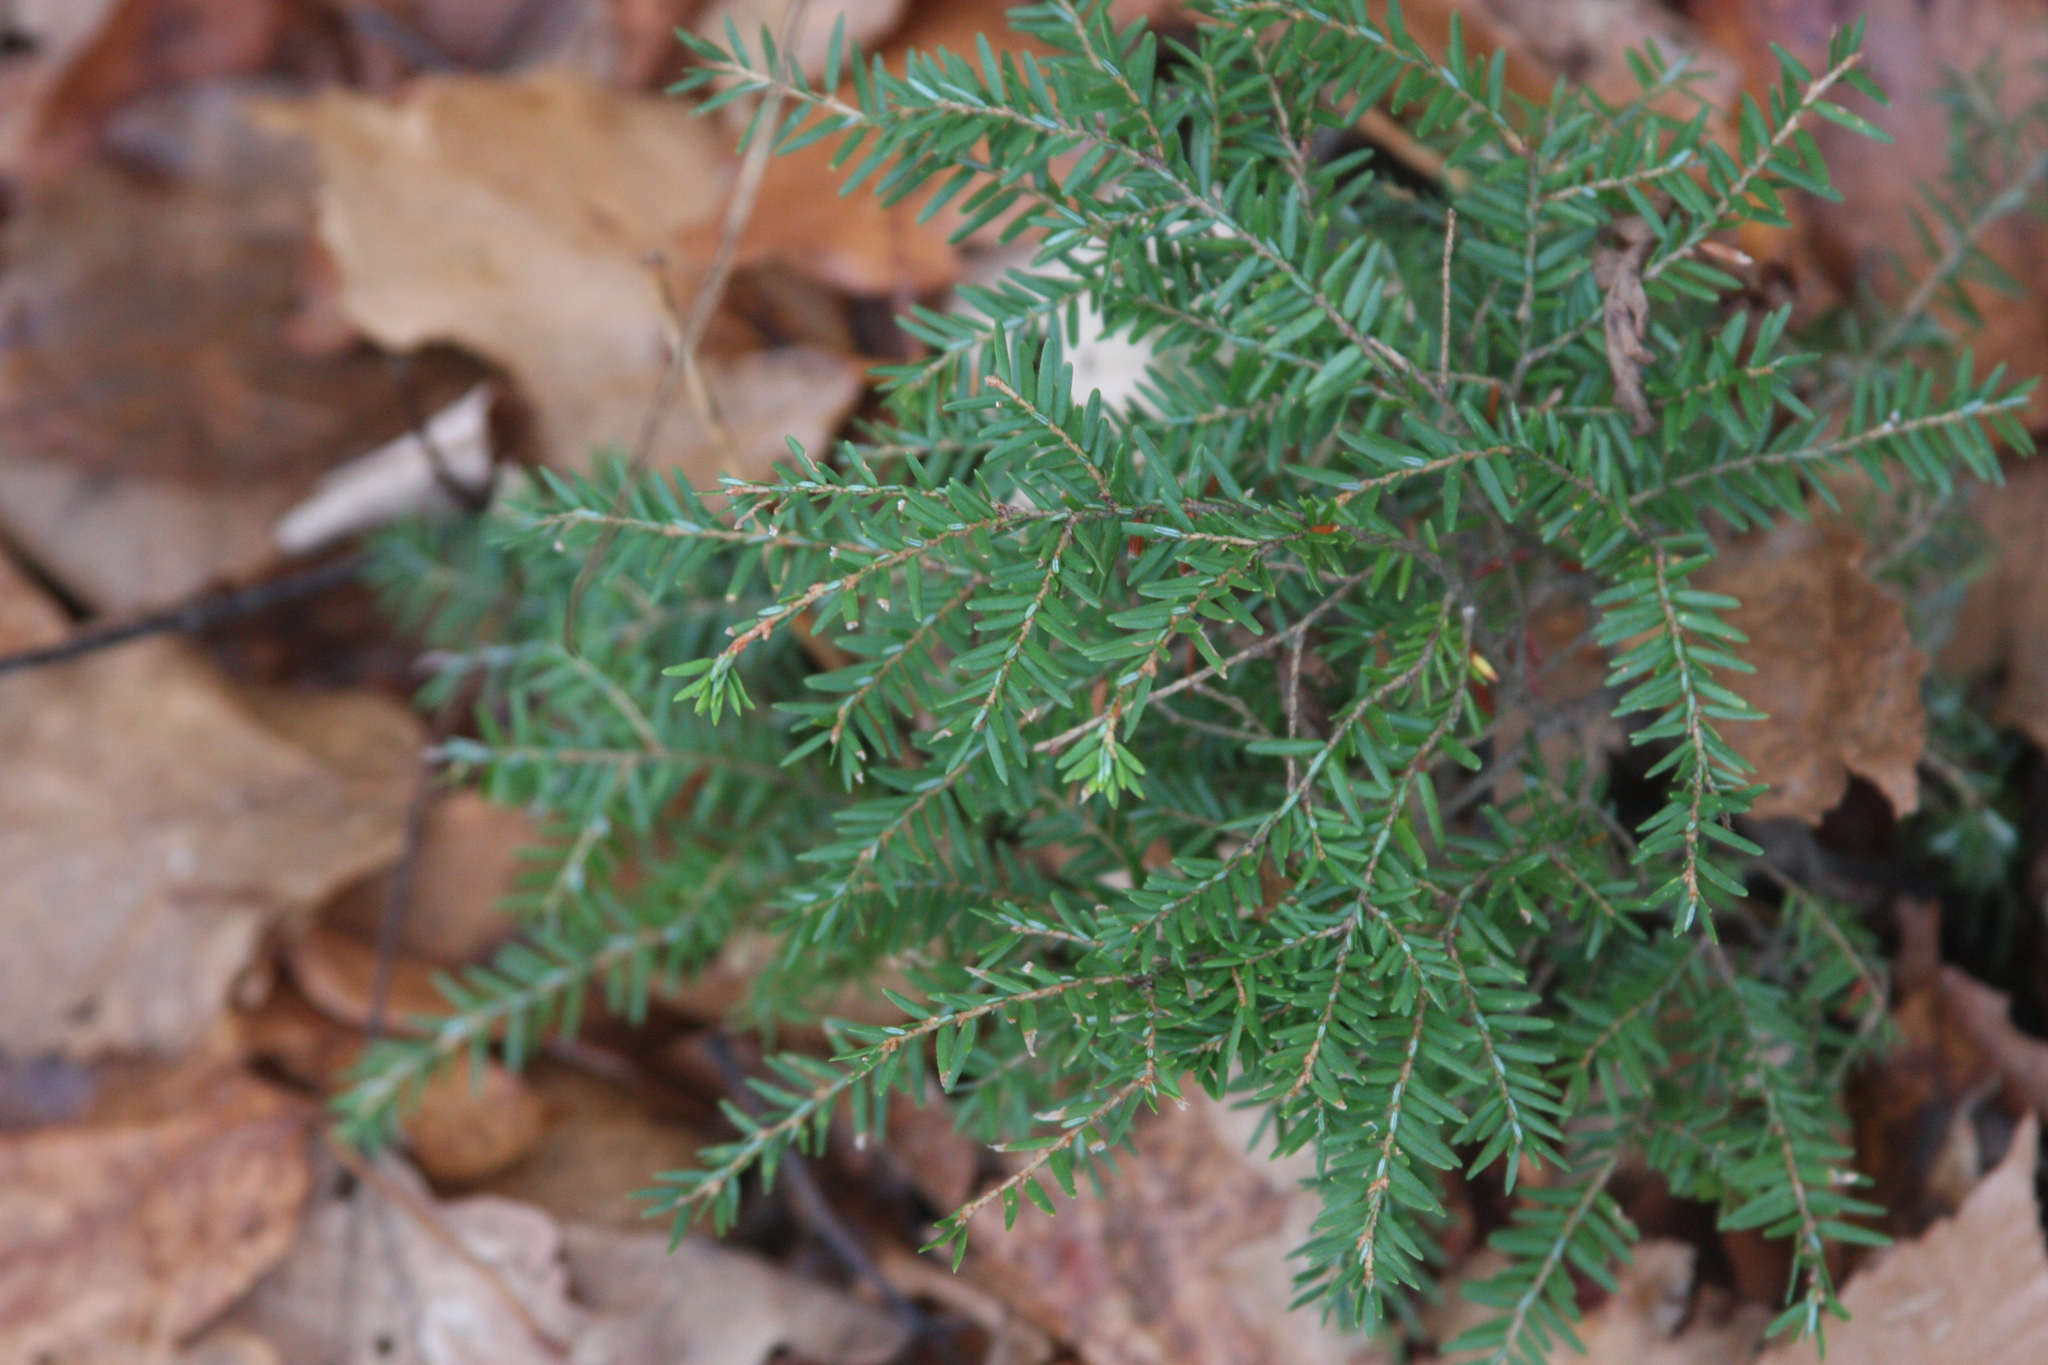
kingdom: Plantae
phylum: Tracheophyta
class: Pinopsida
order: Pinales
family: Pinaceae
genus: Tsuga
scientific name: Tsuga canadensis
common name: Eastern hemlock
